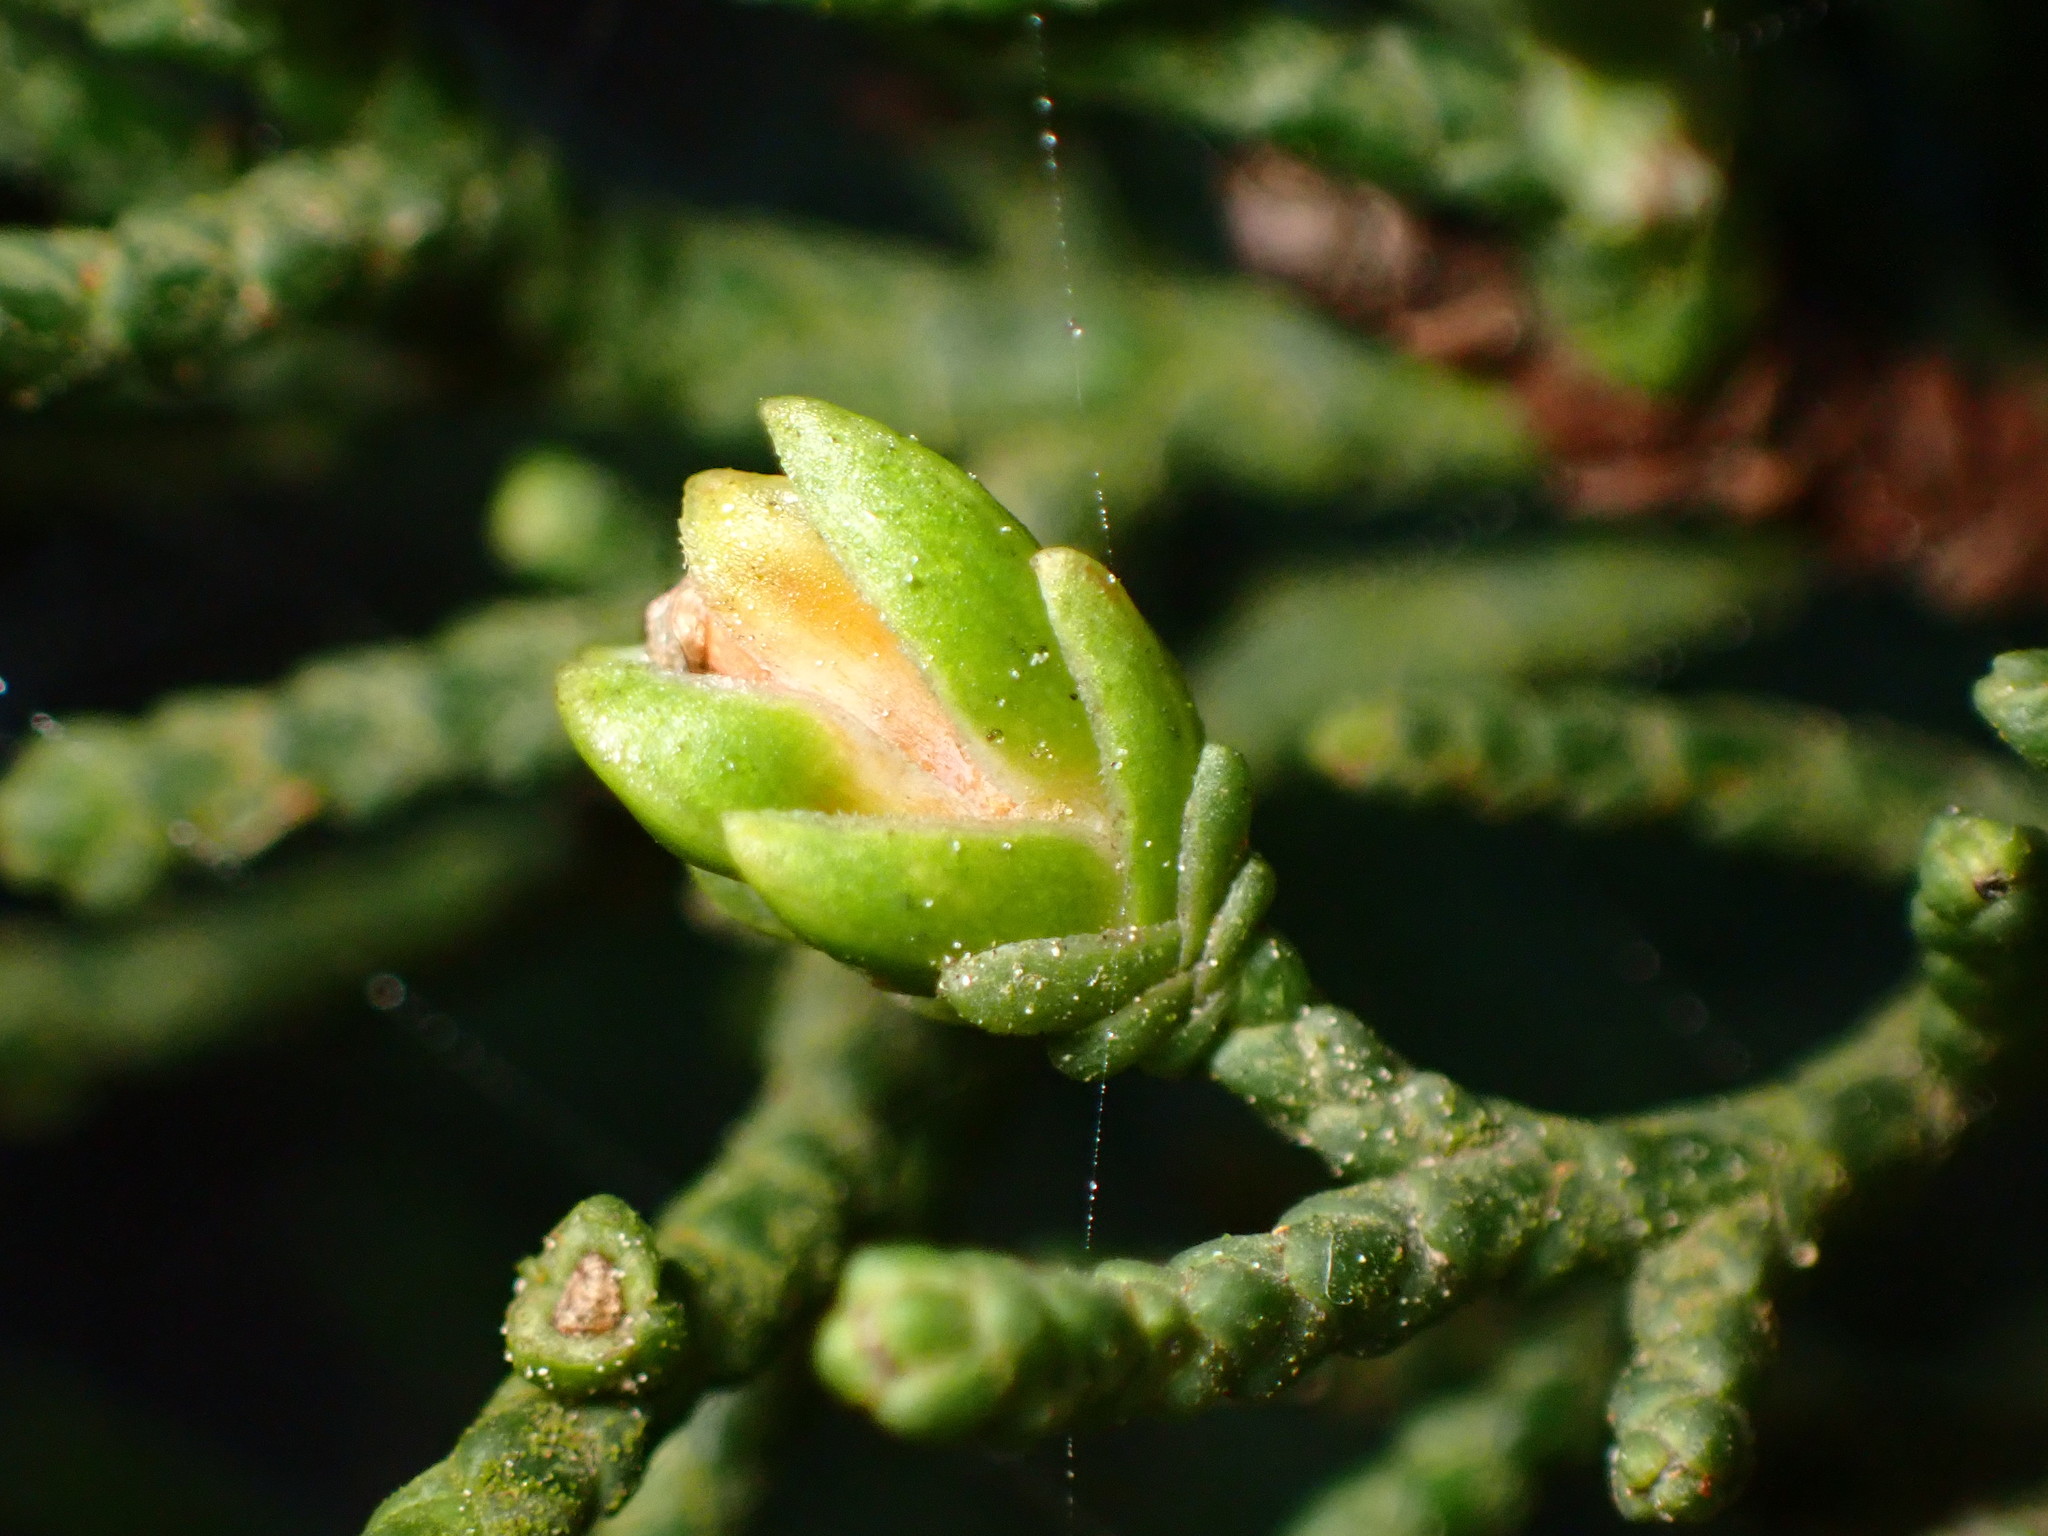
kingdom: Animalia
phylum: Arthropoda
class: Insecta
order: Diptera
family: Cecidomyiidae
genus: Oligotrophus
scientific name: Oligotrophus cupressi
